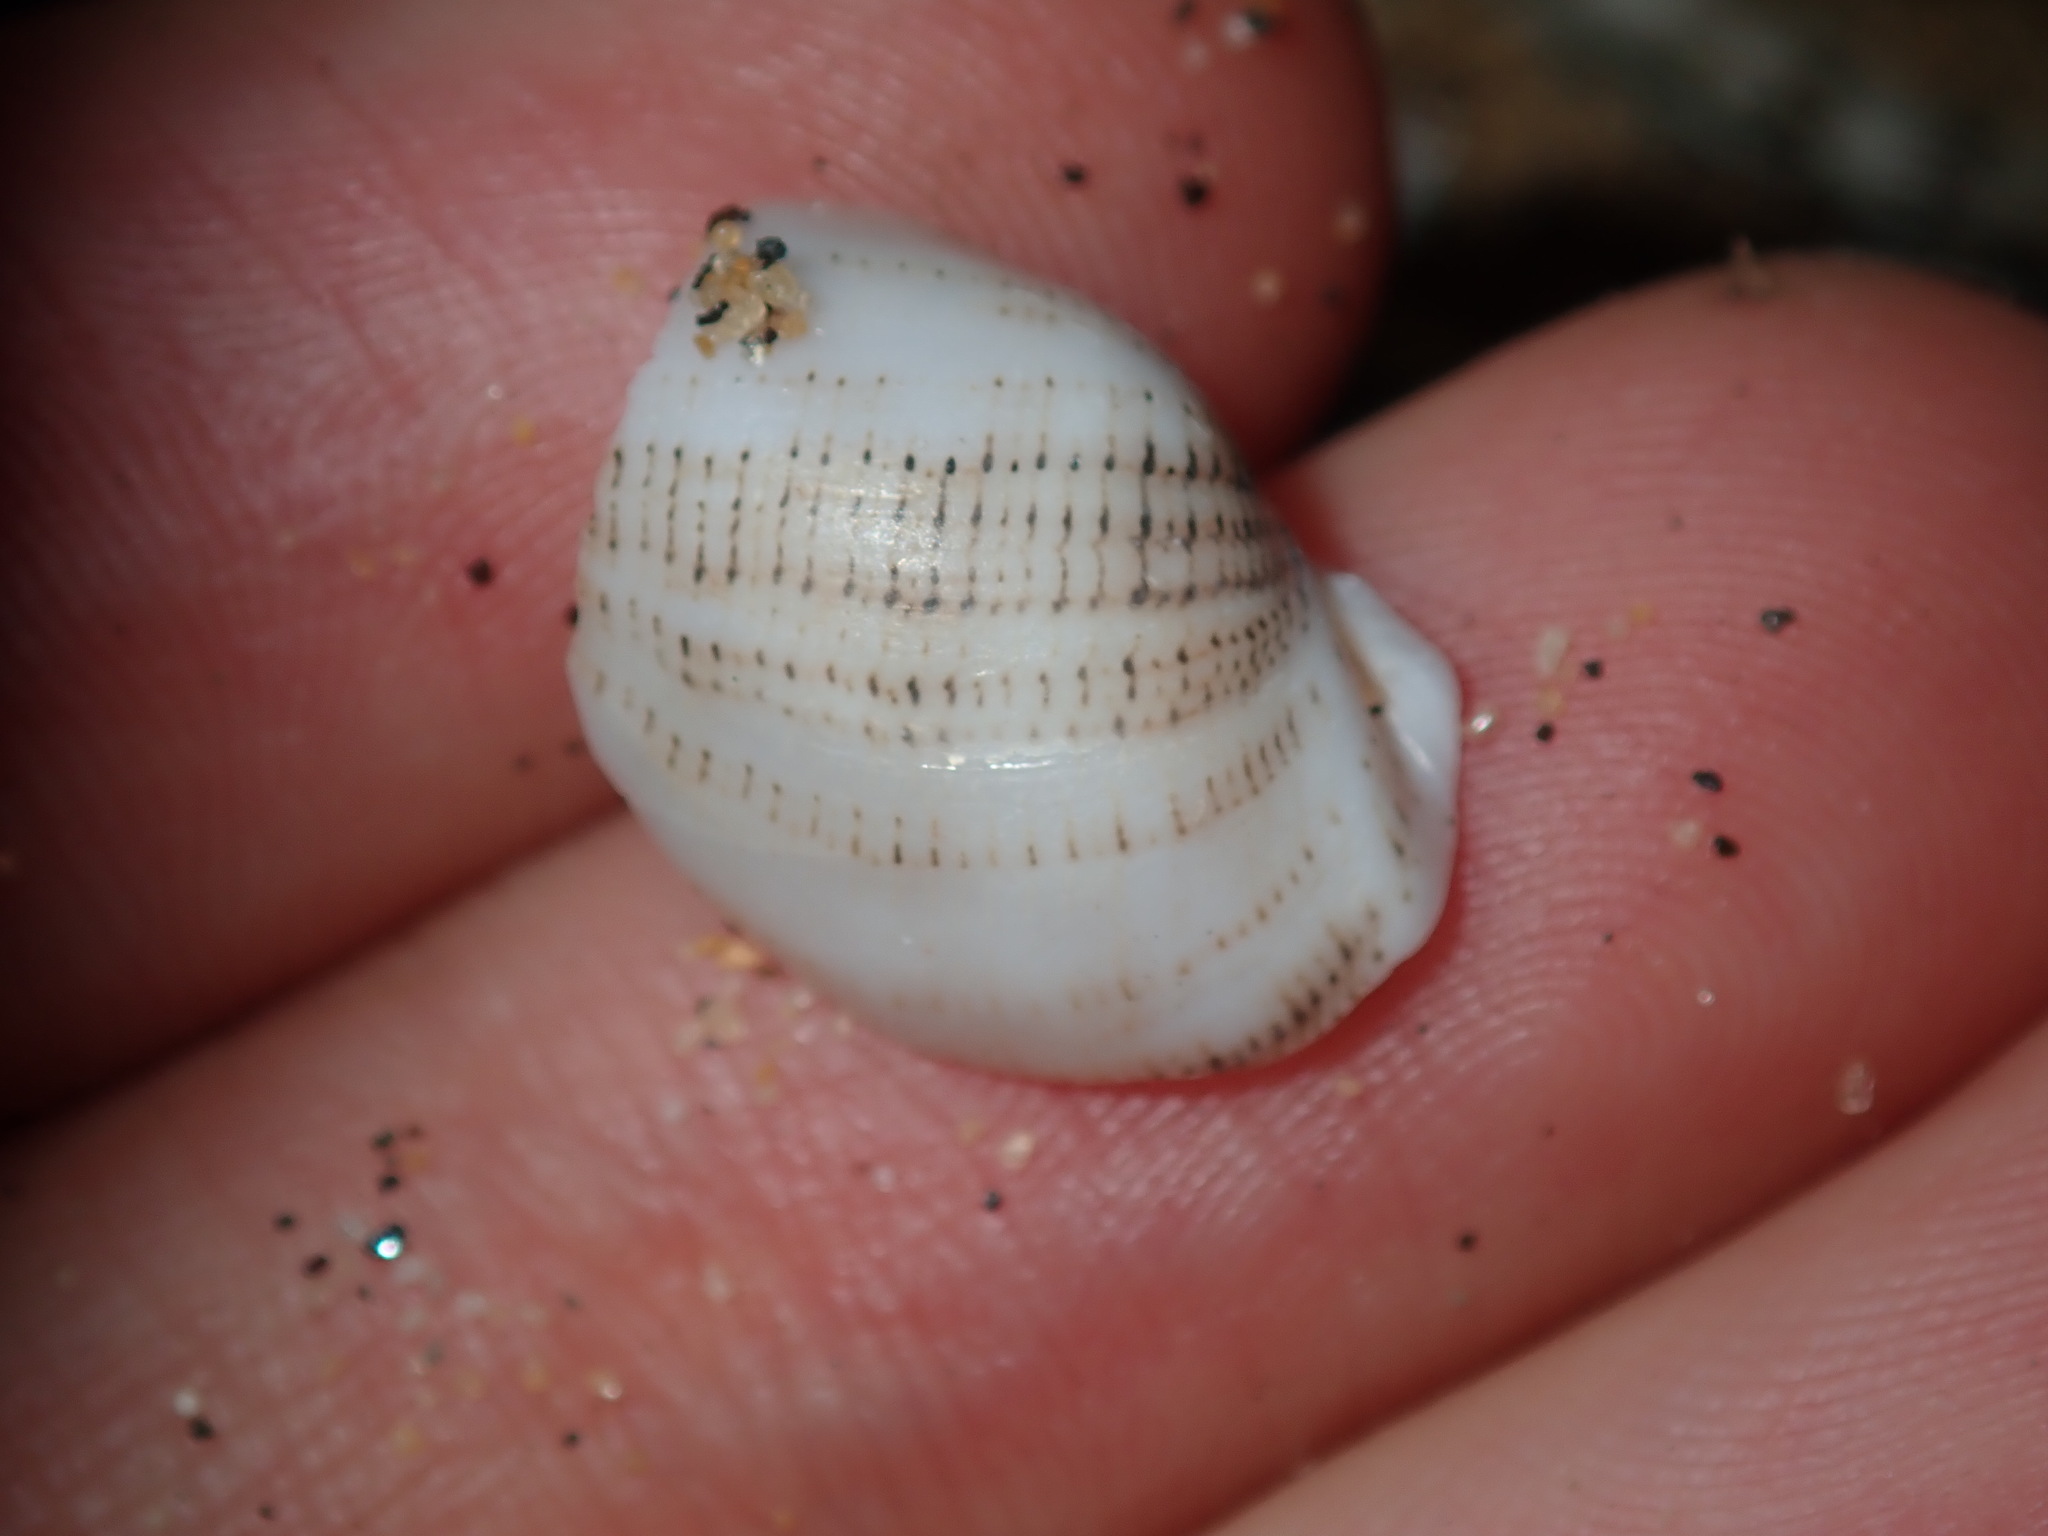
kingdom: Animalia
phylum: Mollusca
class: Gastropoda
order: Cephalaspidea
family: Aplustridae
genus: Hydatina
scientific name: Hydatina physis
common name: Brown-line paperbubble
